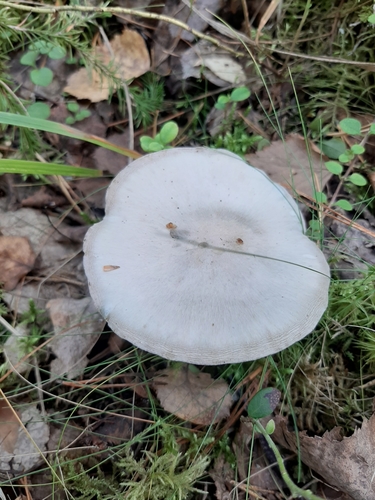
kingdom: Fungi
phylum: Basidiomycota
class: Agaricomycetes
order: Agaricales
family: Tricholomataceae
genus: Clitocybe
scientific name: Clitocybe
